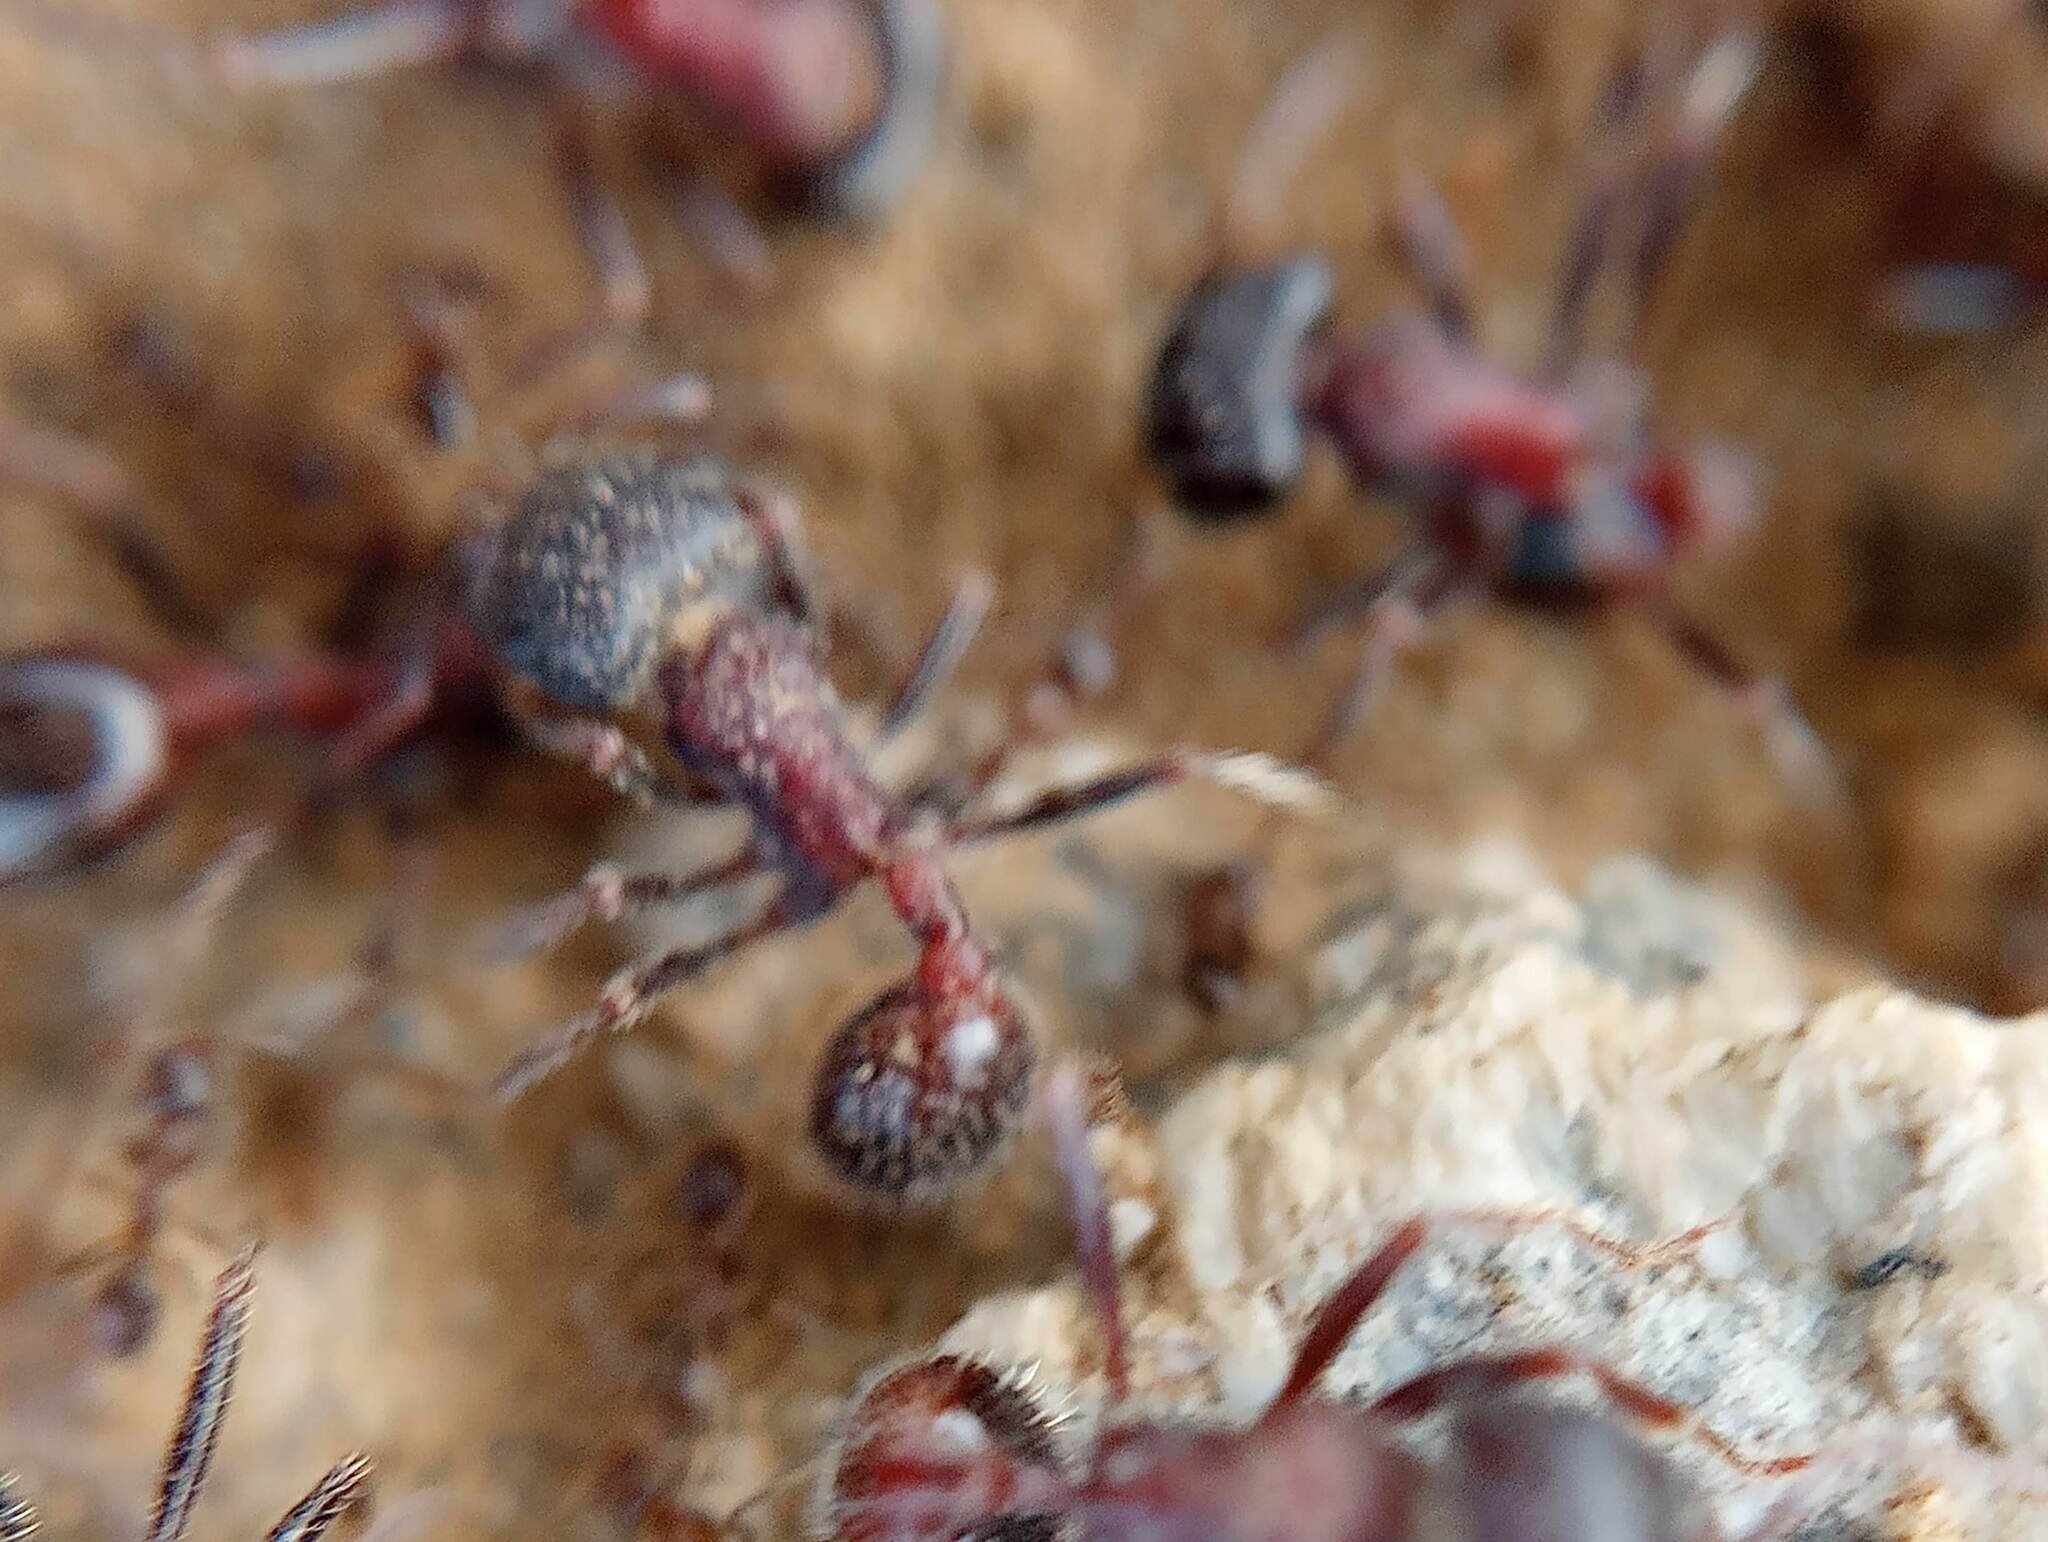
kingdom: Animalia
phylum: Arthropoda
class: Insecta
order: Hymenoptera
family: Formicidae
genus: Pogonomyrmex
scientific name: Pogonomyrmex rugosus
